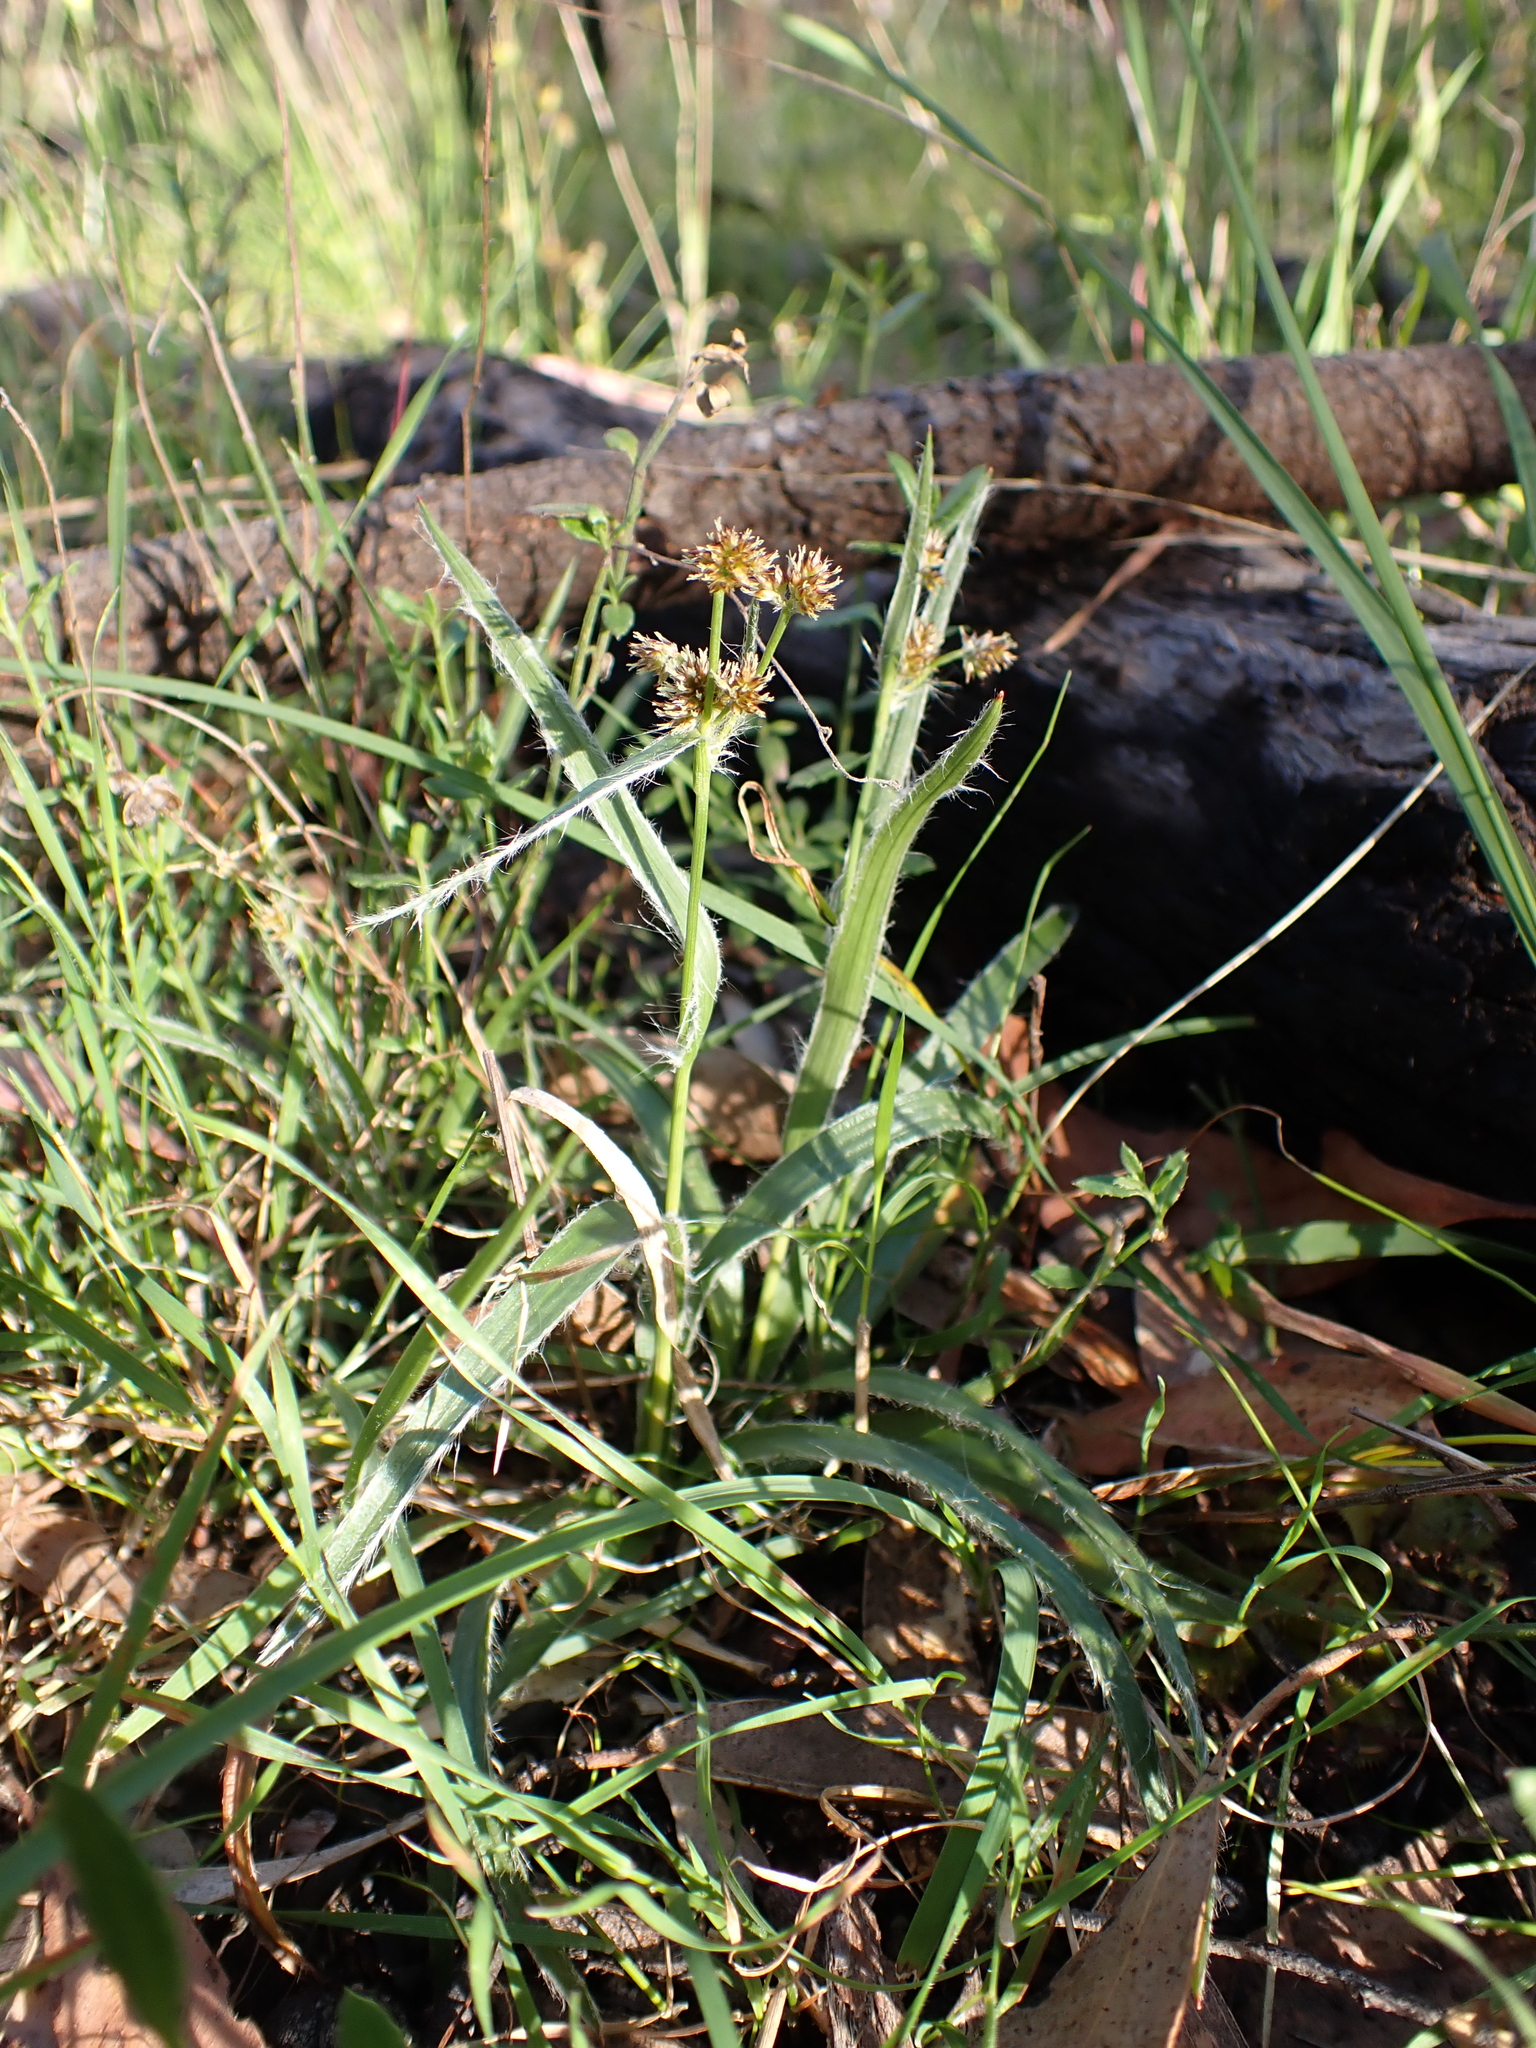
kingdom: Plantae
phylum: Tracheophyta
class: Liliopsida
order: Poales
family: Juncaceae
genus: Luzula
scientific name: Luzula meridionalis
